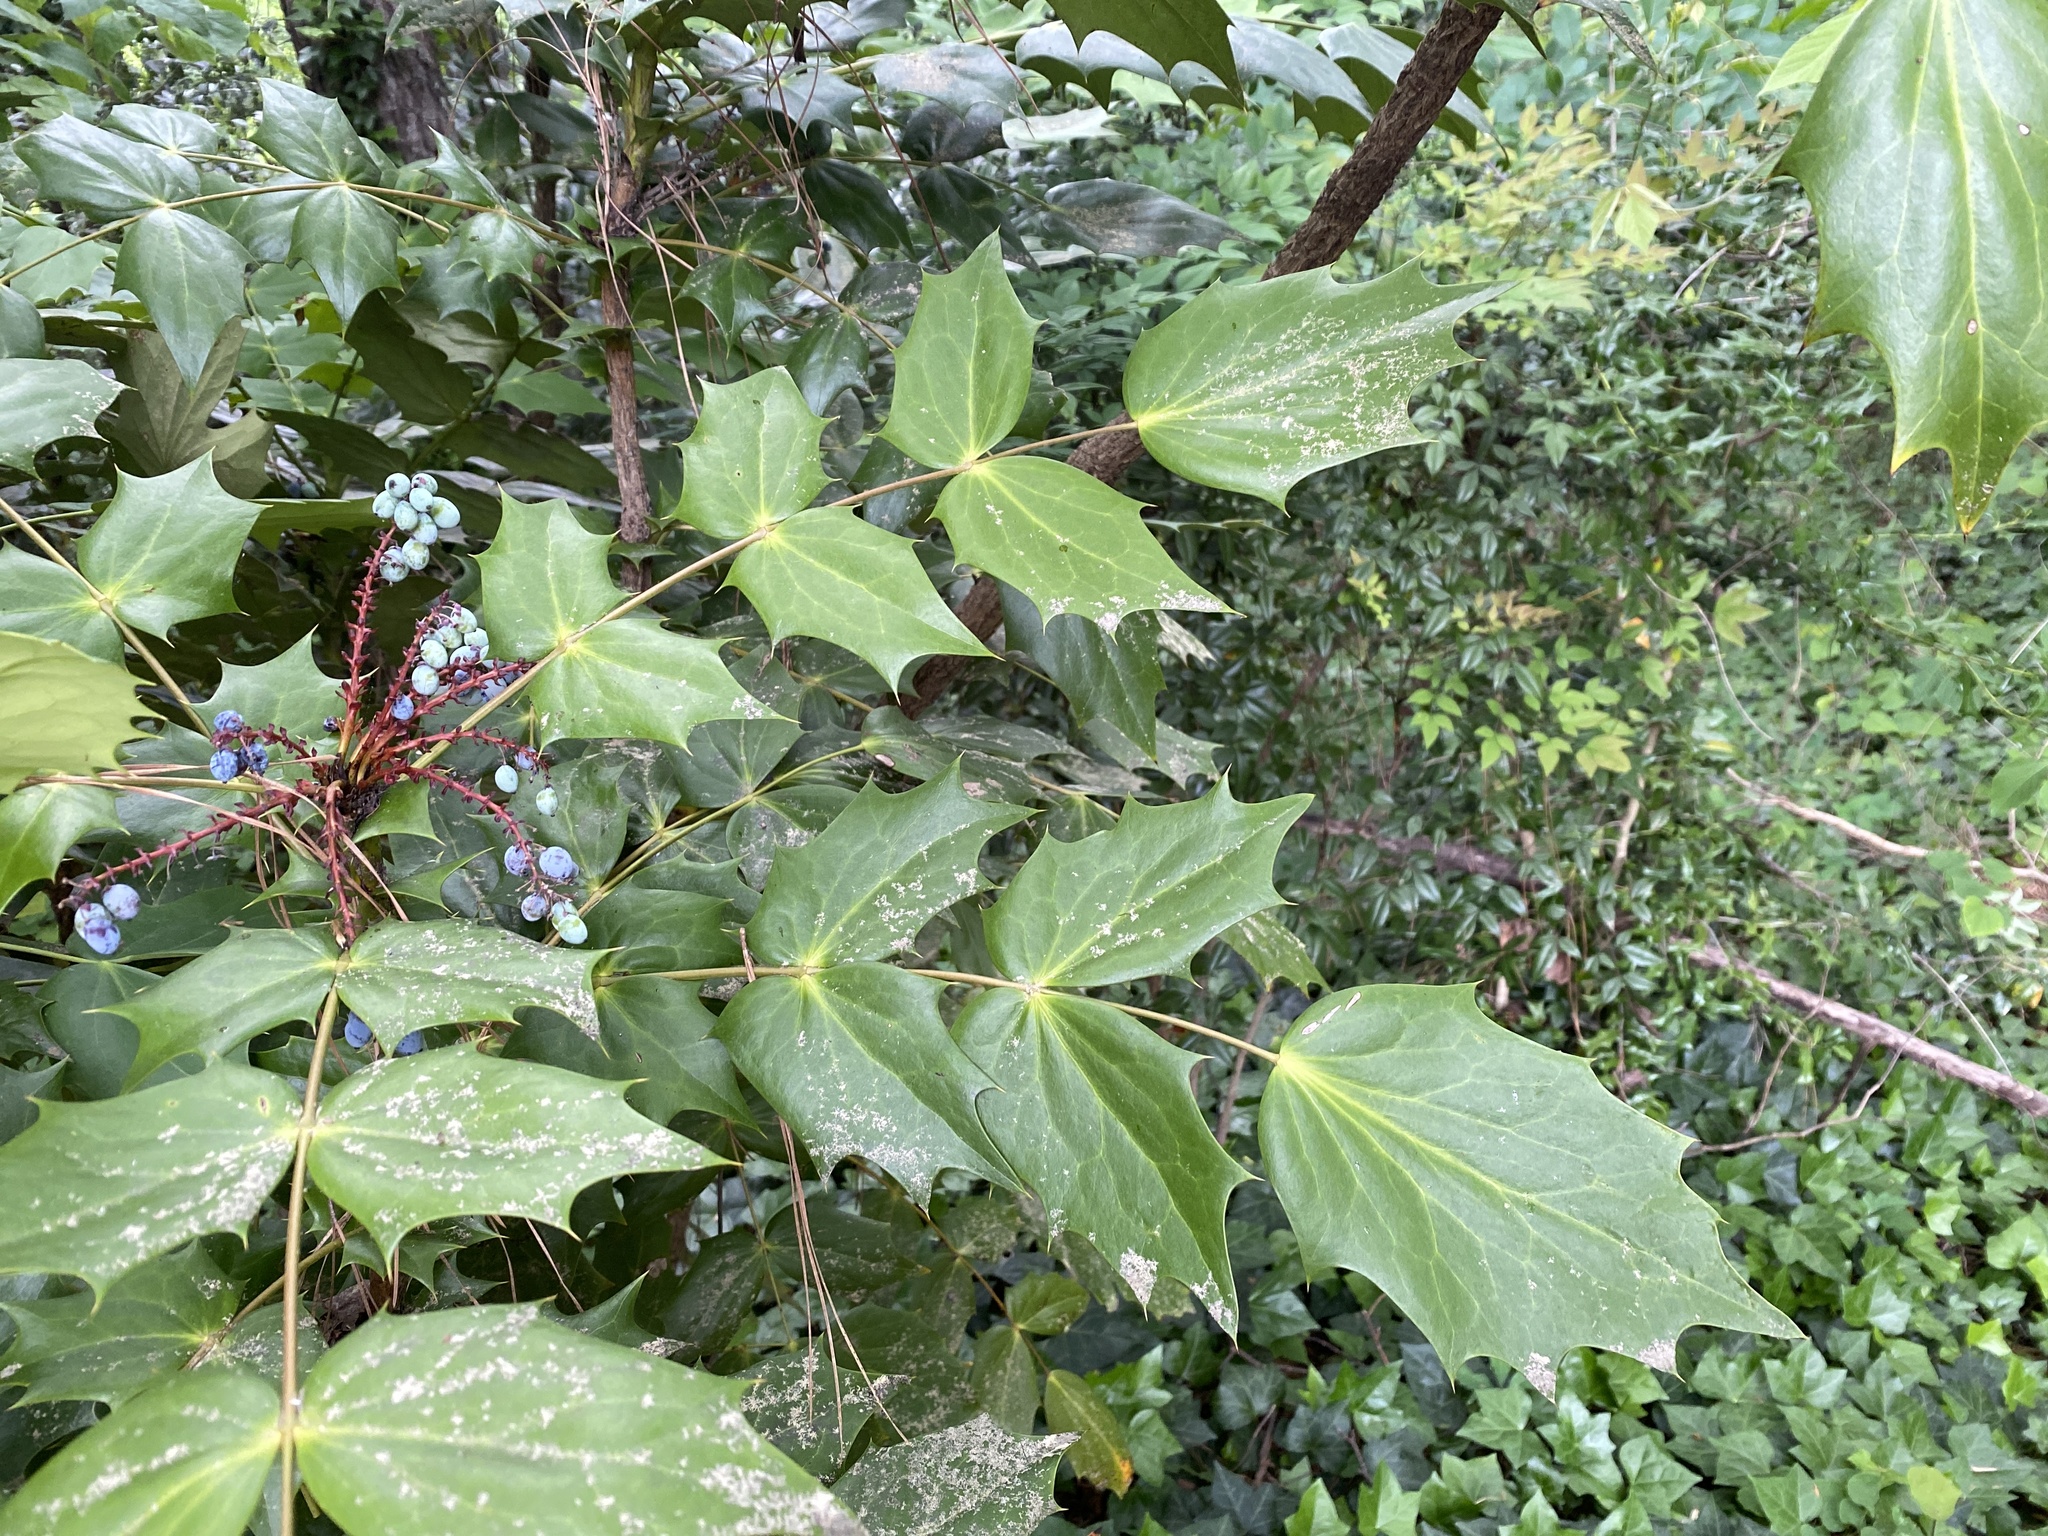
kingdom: Plantae
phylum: Tracheophyta
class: Magnoliopsida
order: Ranunculales
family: Berberidaceae
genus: Mahonia
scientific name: Mahonia bealei
